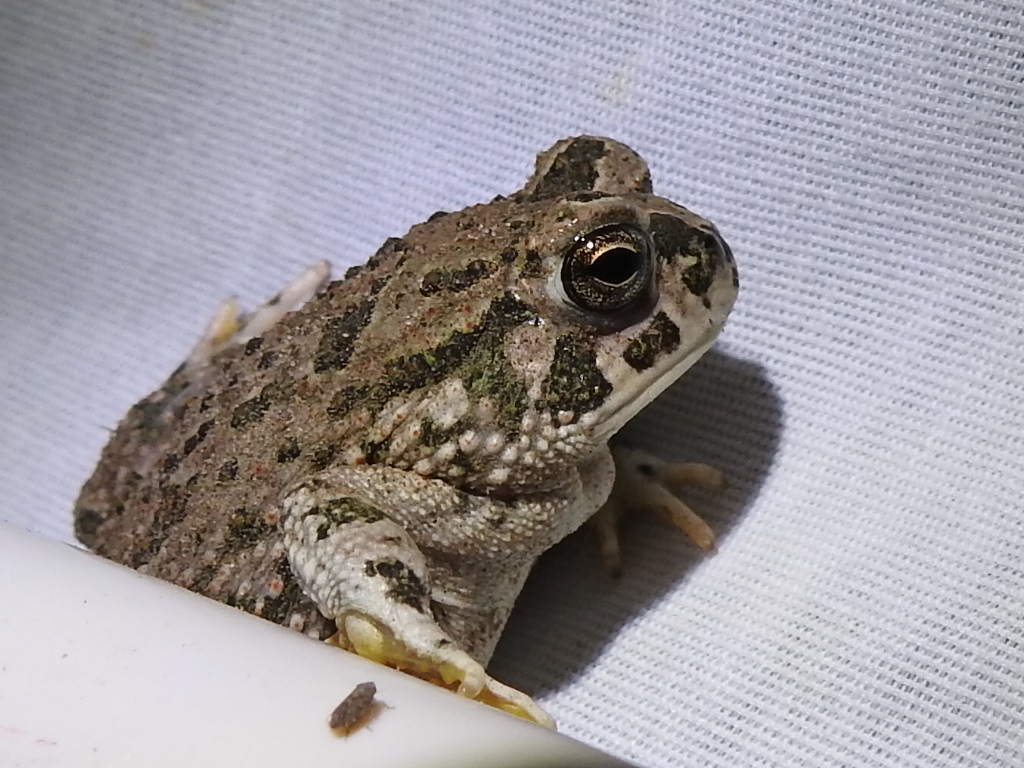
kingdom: Animalia
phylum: Chordata
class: Amphibia
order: Anura
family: Bufonidae
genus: Anaxyrus
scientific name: Anaxyrus speciosus
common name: Texas toad
